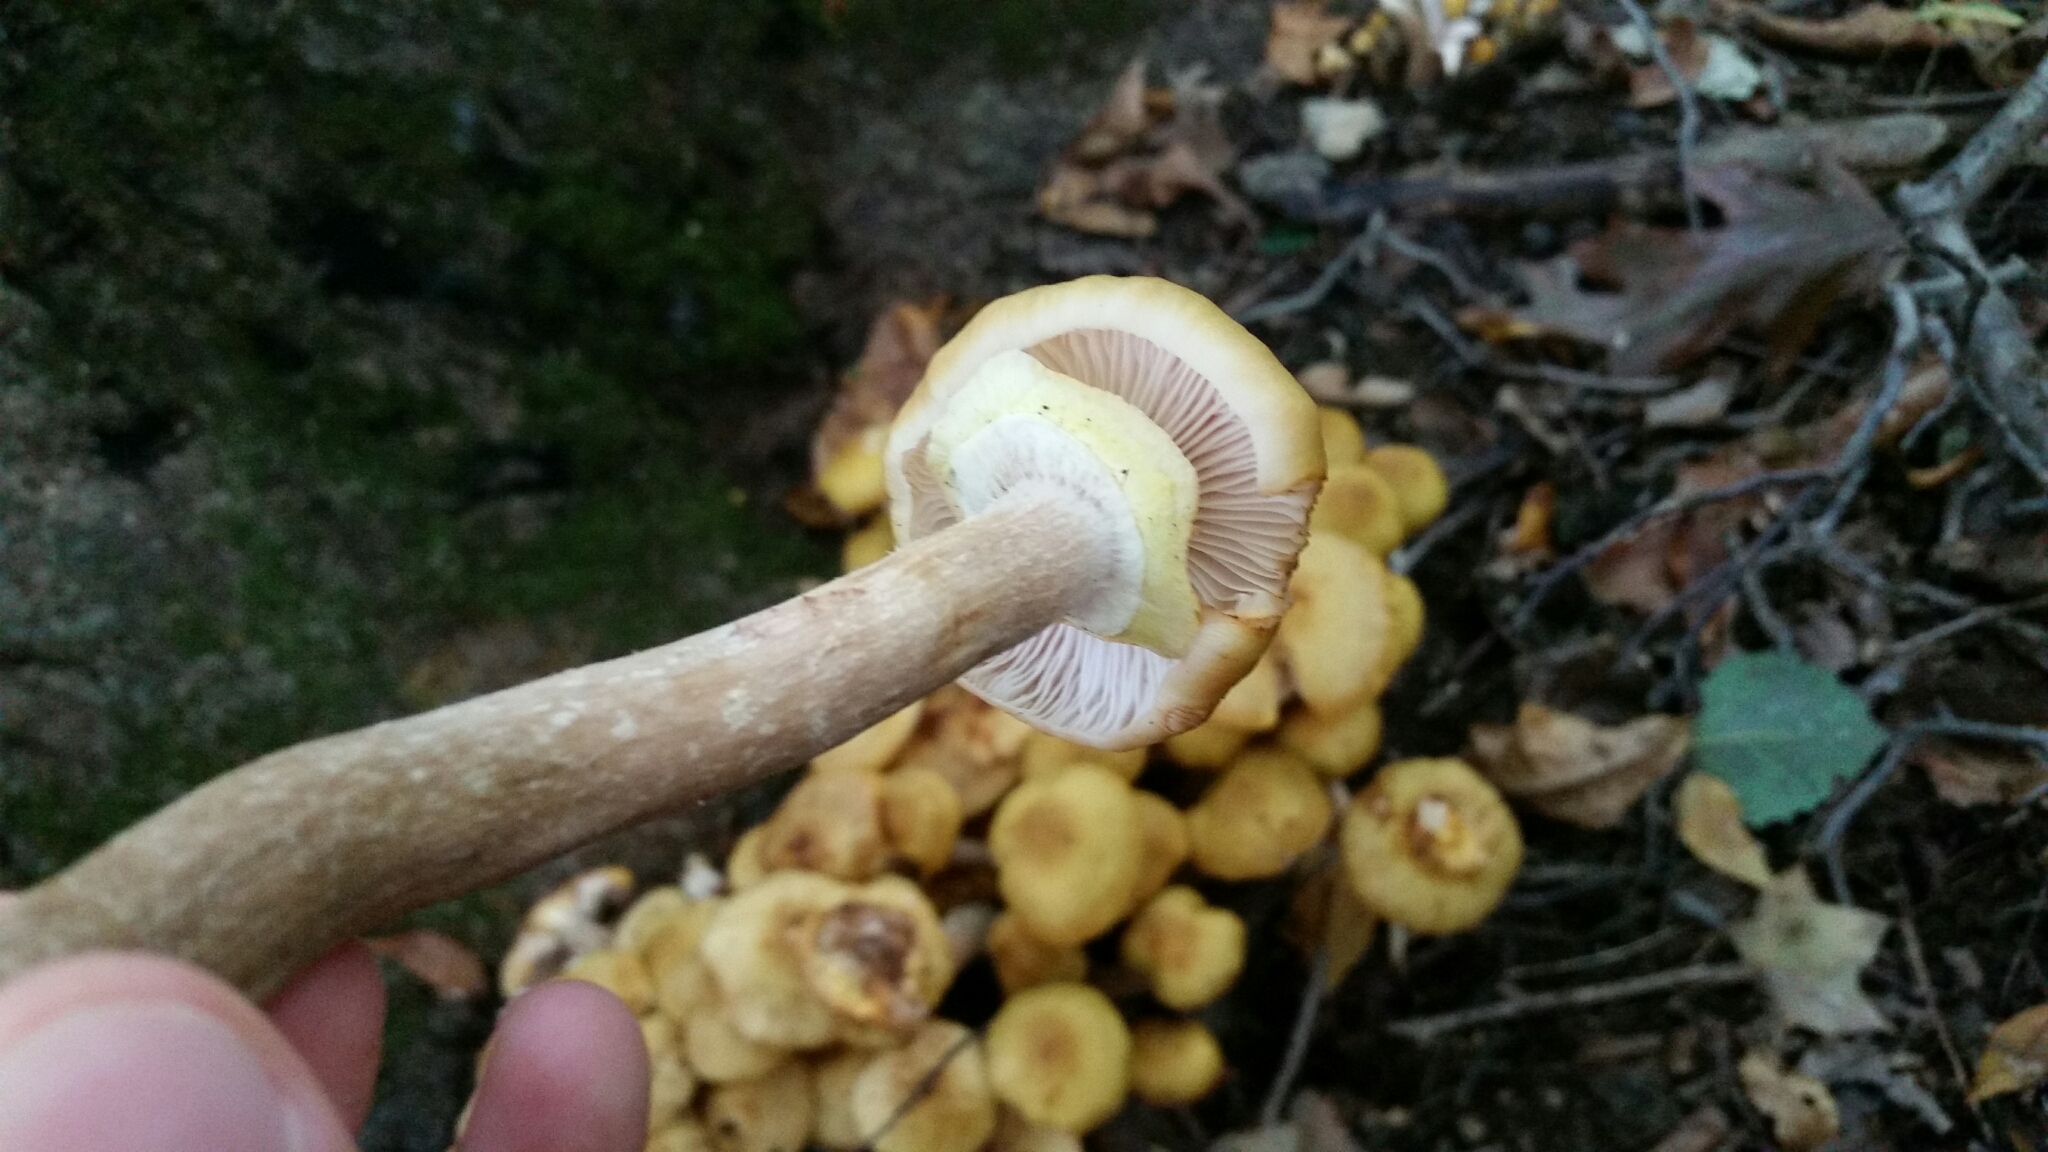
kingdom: Fungi
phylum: Basidiomycota
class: Agaricomycetes
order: Agaricales
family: Physalacriaceae
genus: Armillaria
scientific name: Armillaria mellea
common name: Honey fungus
